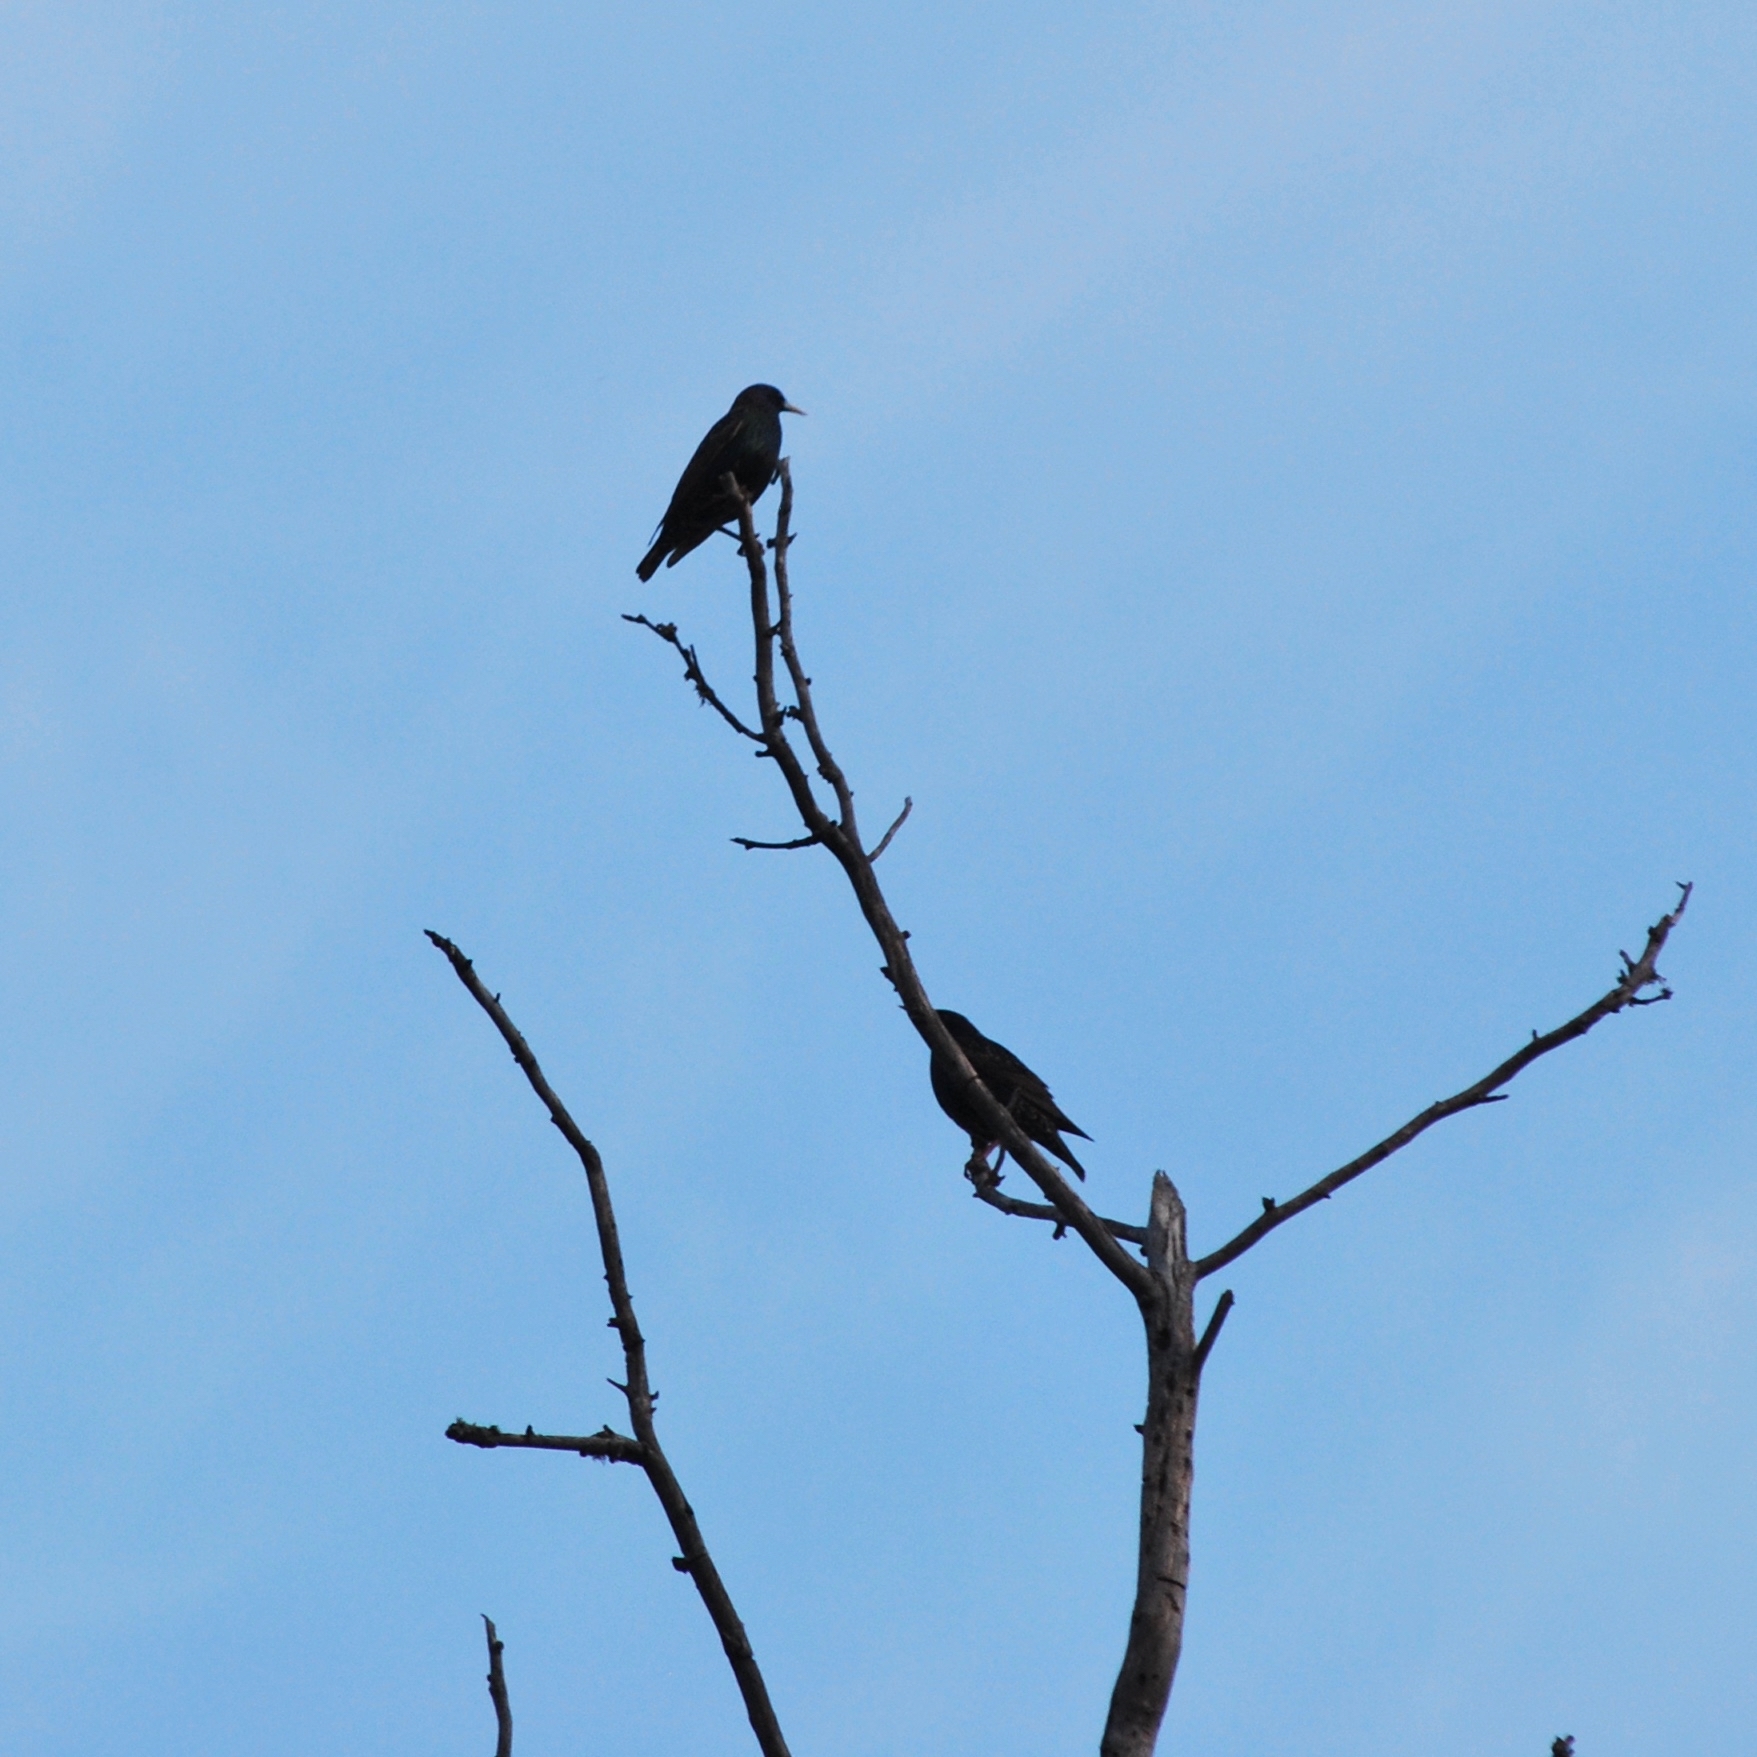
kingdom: Animalia
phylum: Chordata
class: Aves
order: Passeriformes
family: Sturnidae
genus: Sturnus
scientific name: Sturnus vulgaris
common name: Common starling
